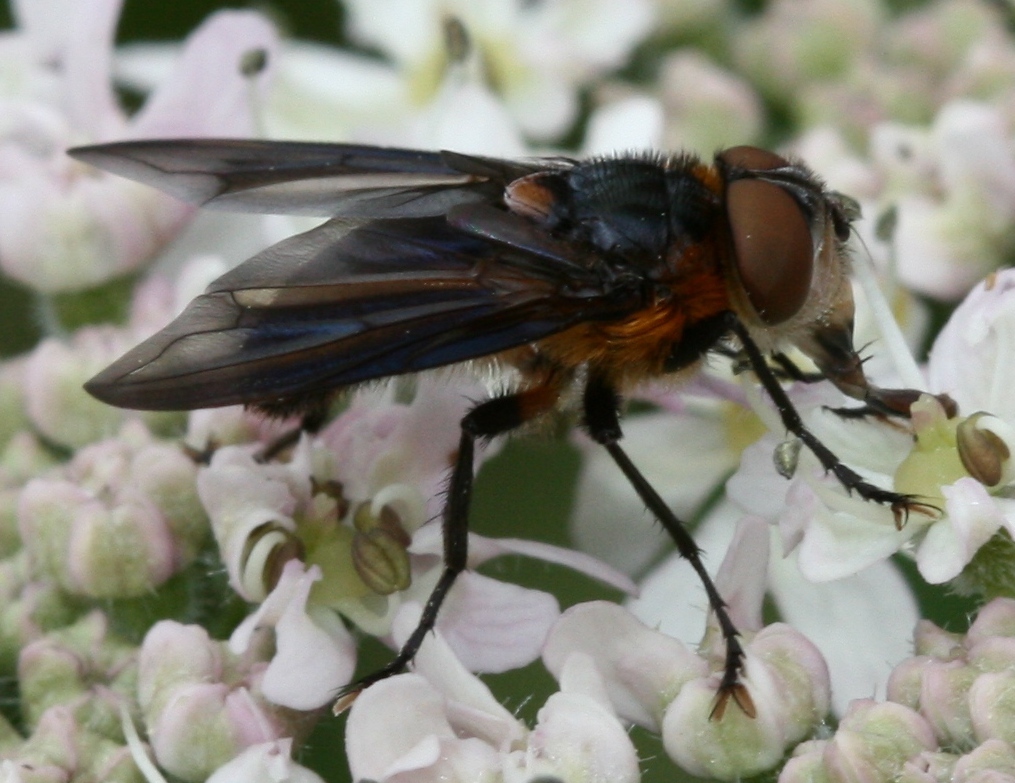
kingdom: Animalia
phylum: Arthropoda
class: Insecta
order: Diptera
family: Tachinidae
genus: Phasia
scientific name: Phasia hemiptera
